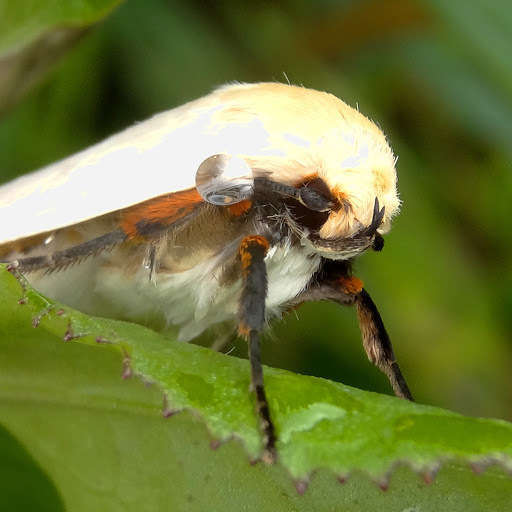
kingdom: Animalia
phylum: Arthropoda
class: Insecta
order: Lepidoptera
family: Xyloryctidae
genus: Maroga
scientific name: Maroga melanostigma
